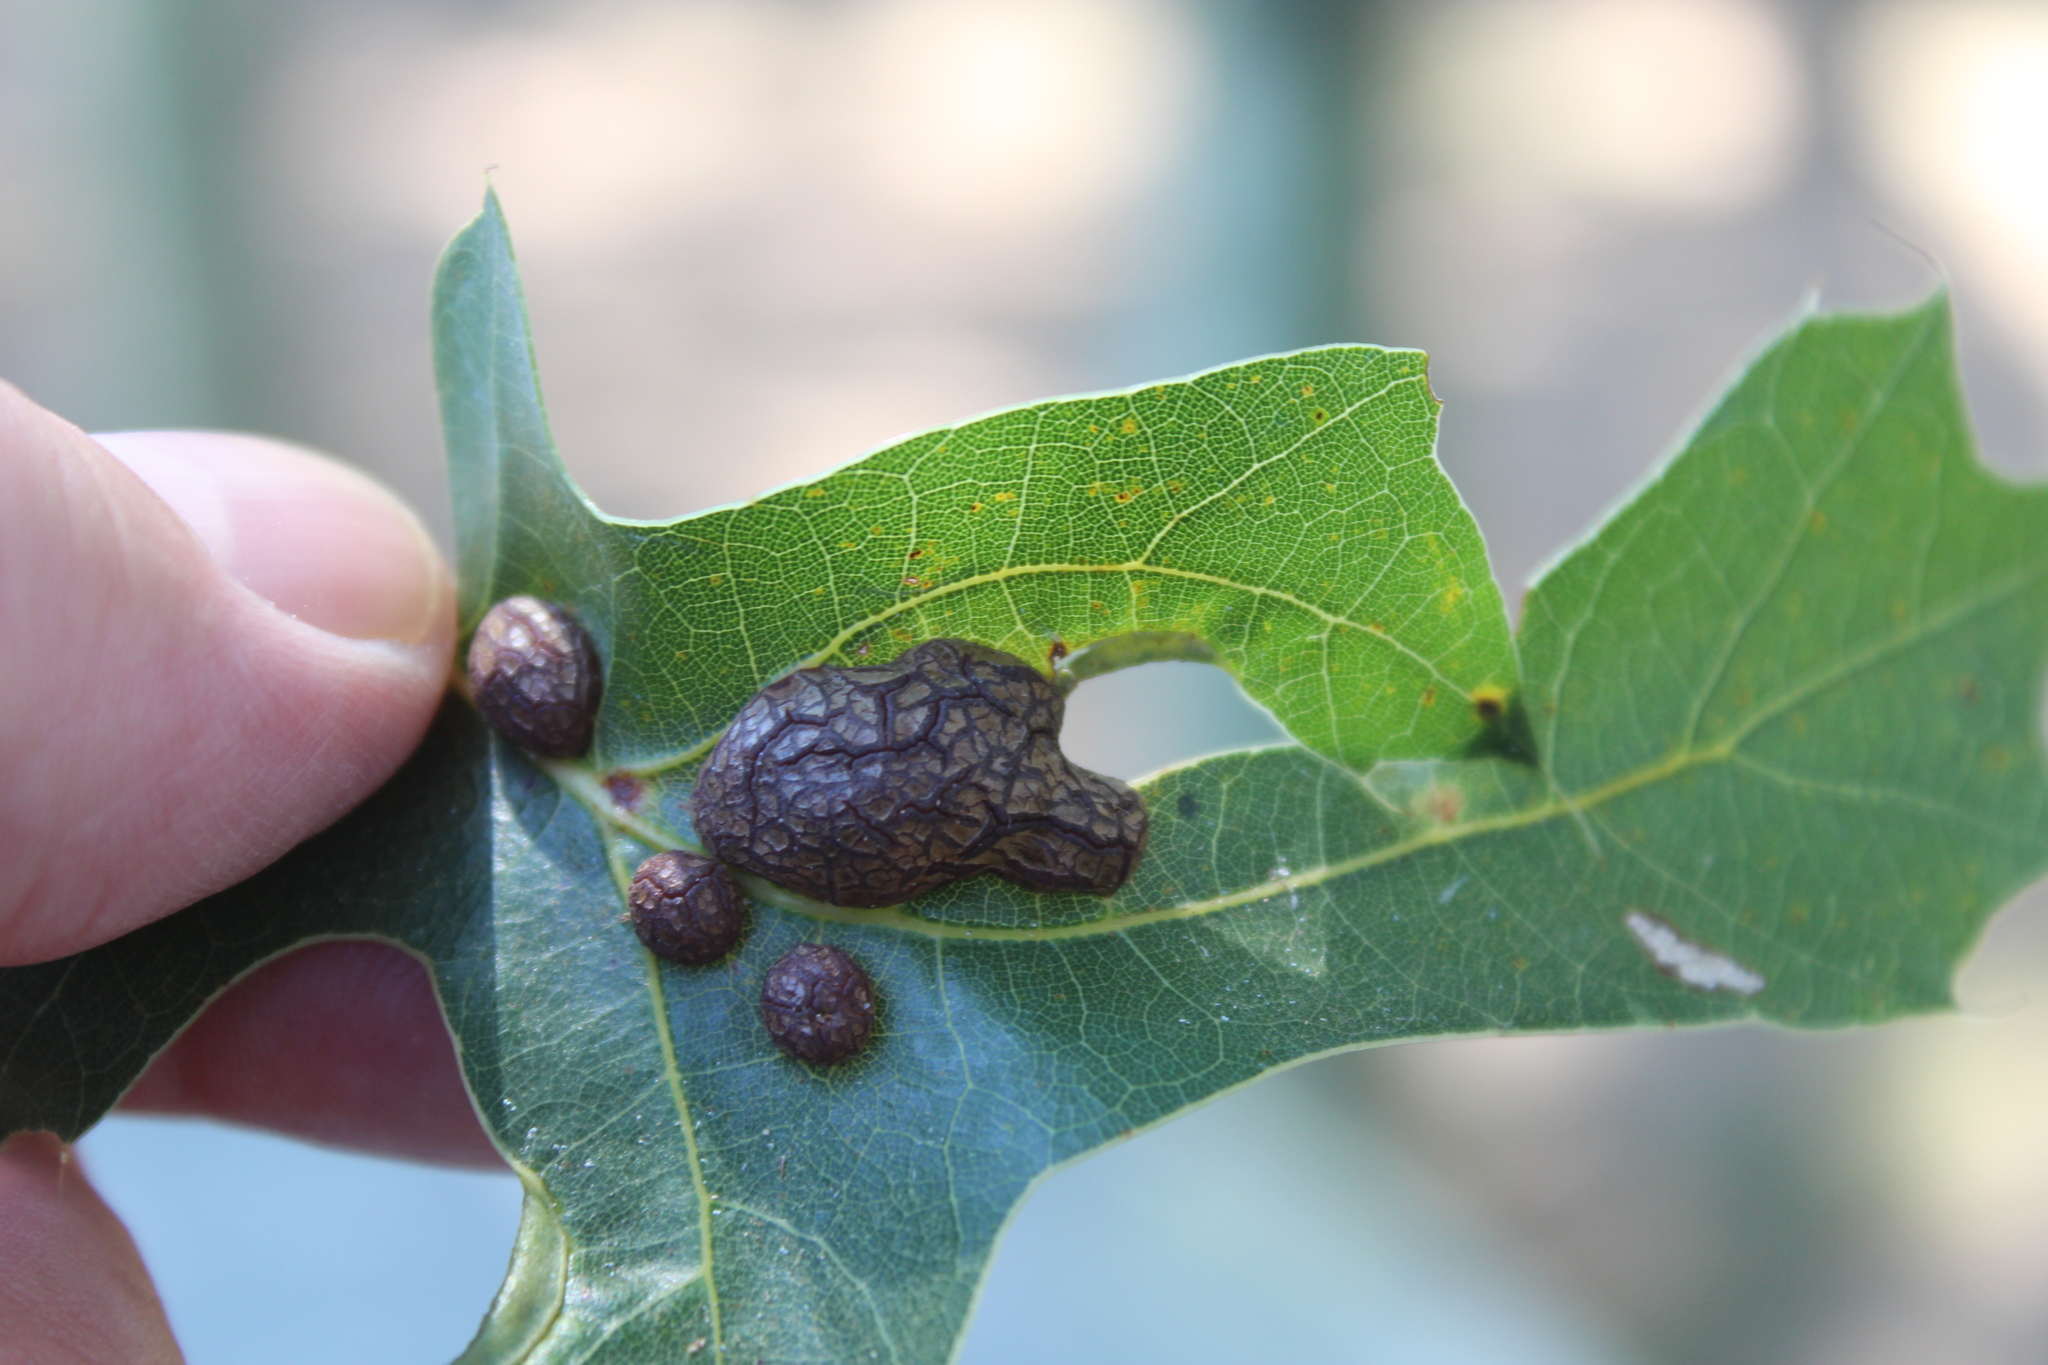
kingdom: Animalia
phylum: Arthropoda
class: Insecta
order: Diptera
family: Cecidomyiidae
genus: Polystepha
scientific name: Polystepha pilulae
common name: Oak leaf gall midge
